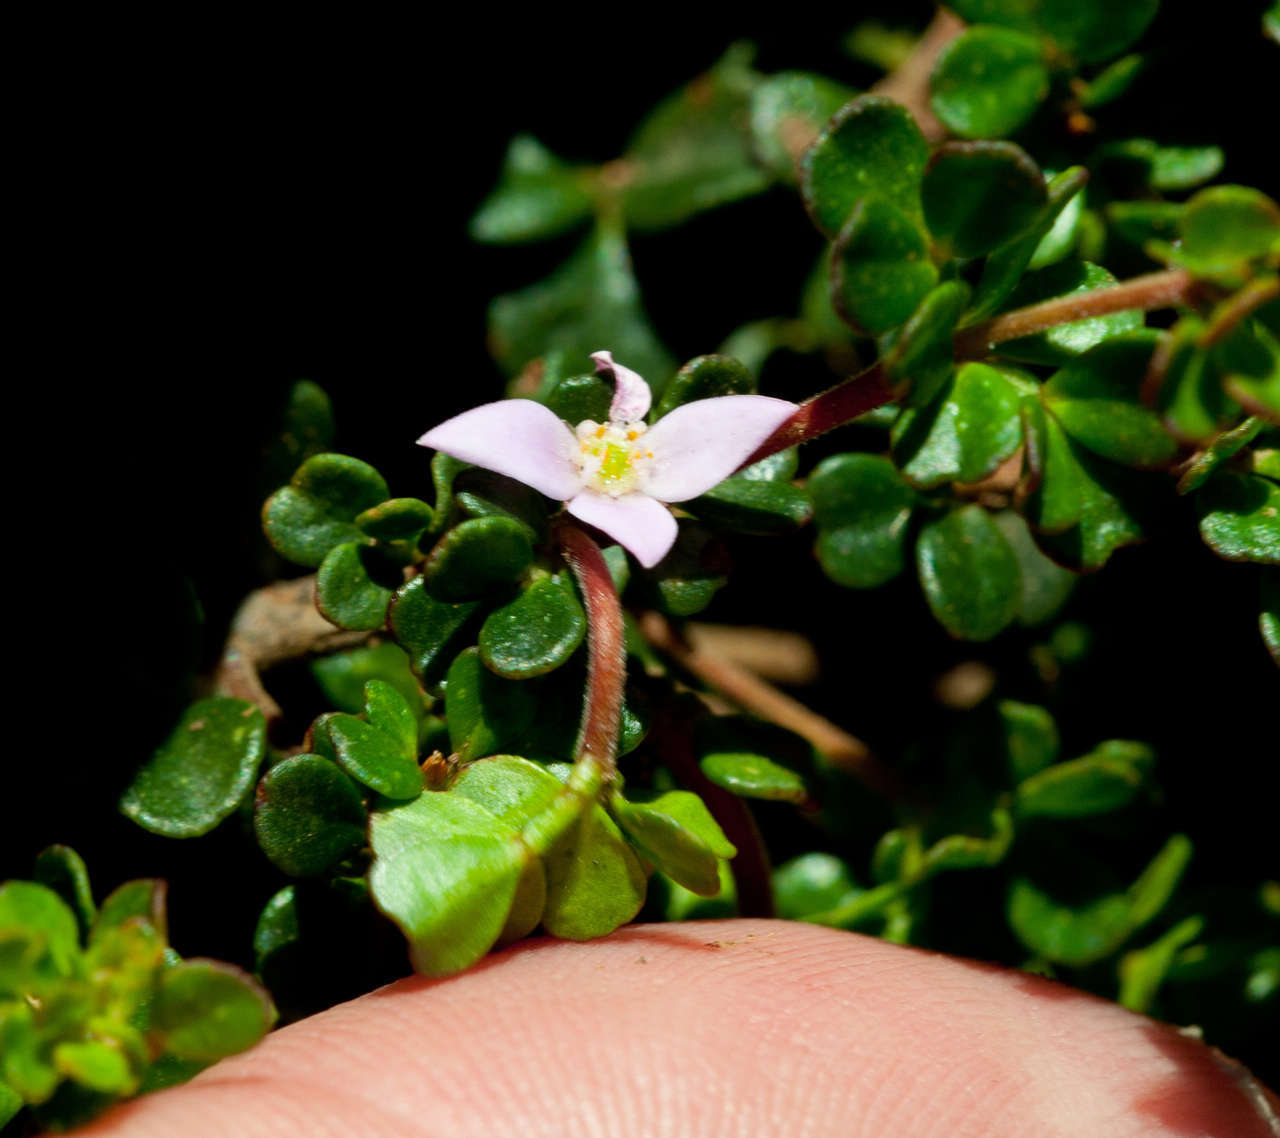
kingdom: Plantae
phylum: Tracheophyta
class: Magnoliopsida
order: Sapindales
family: Rutaceae
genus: Boronia
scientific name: Boronia algida
